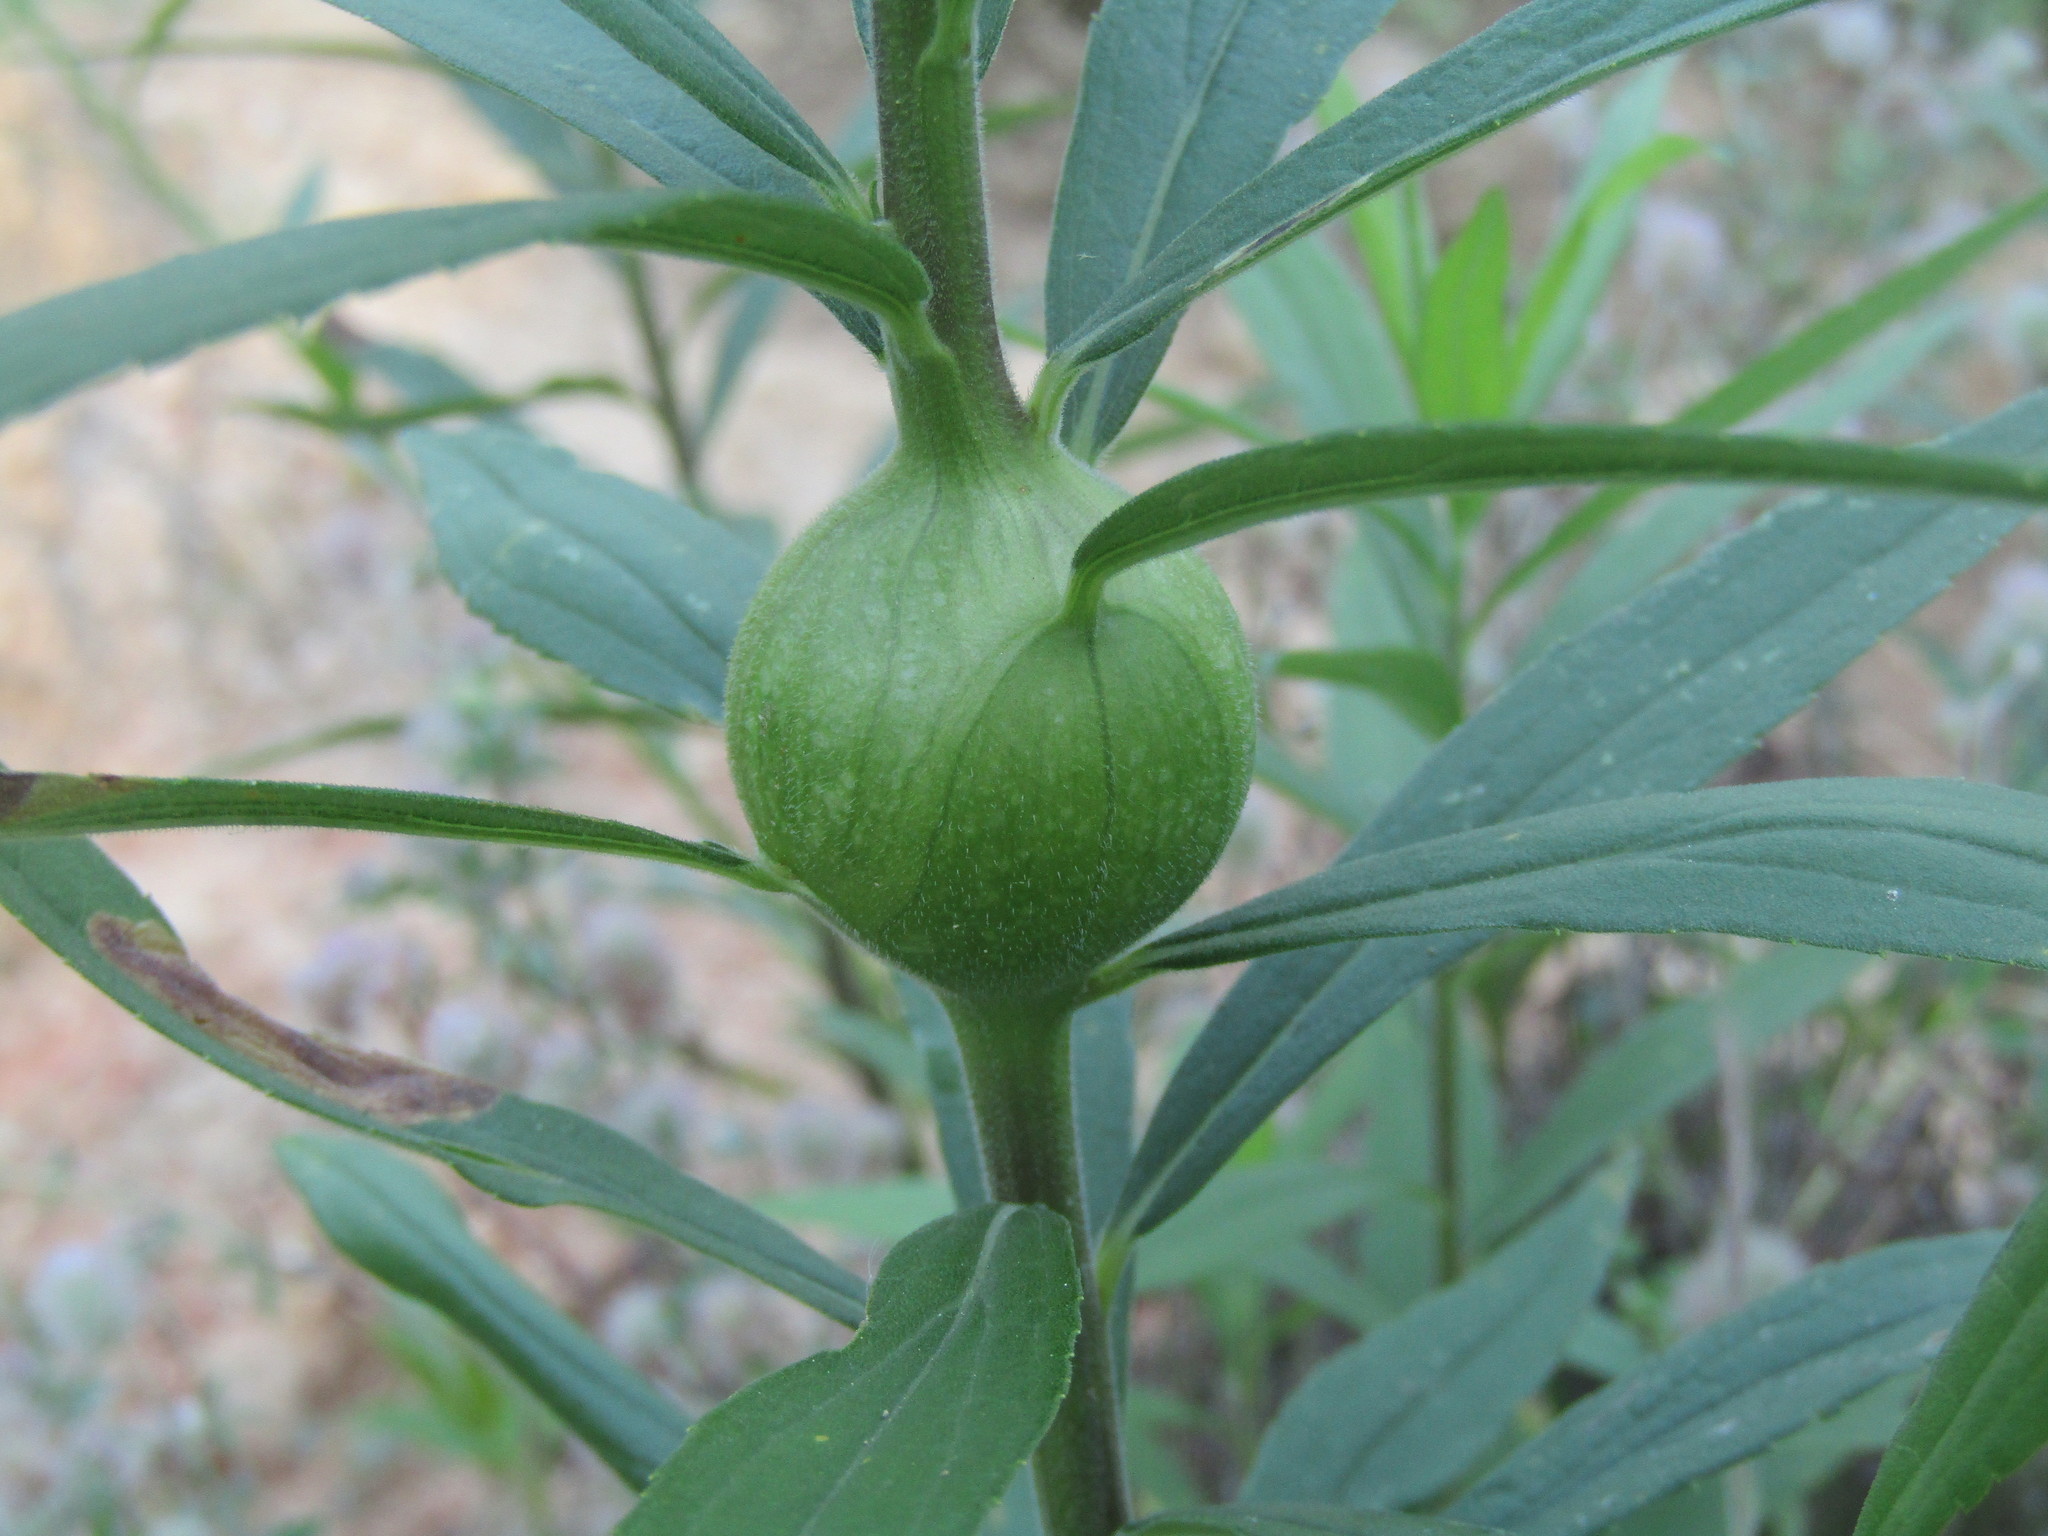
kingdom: Animalia
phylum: Arthropoda
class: Insecta
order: Diptera
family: Tephritidae
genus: Eurosta
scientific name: Eurosta solidaginis
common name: Goldenrod gall fly
